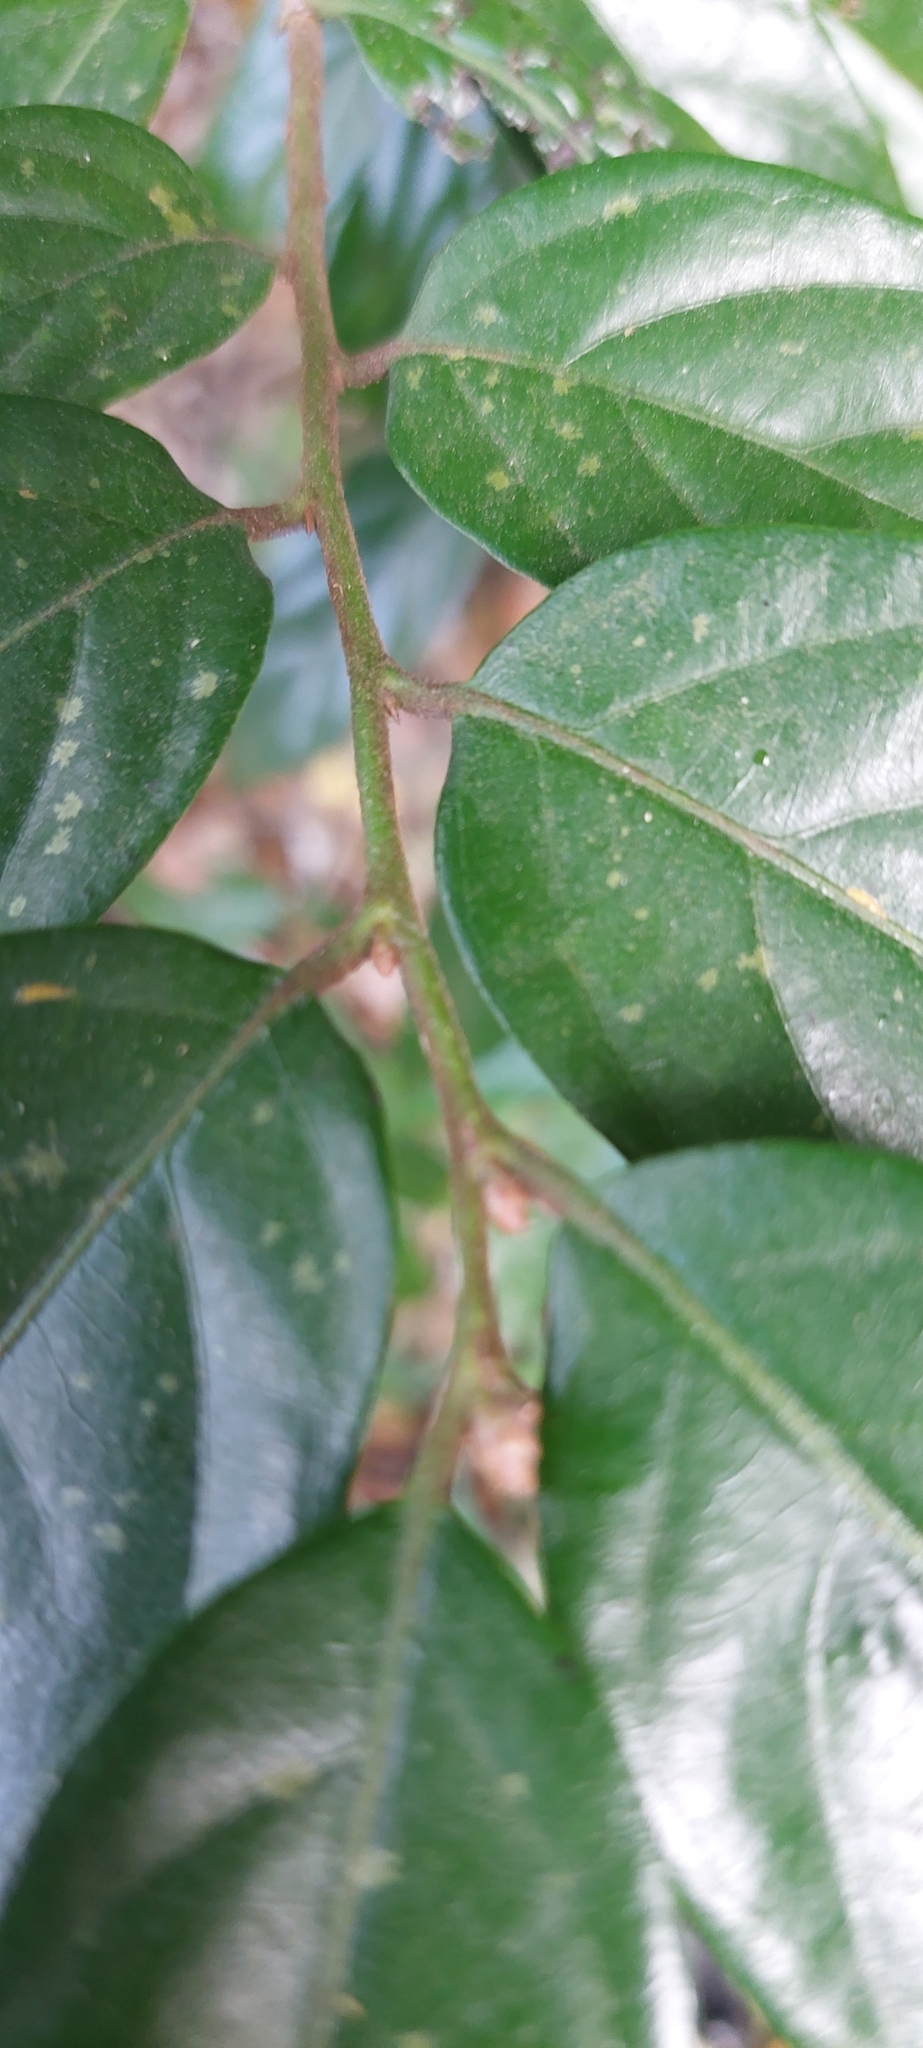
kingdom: Plantae
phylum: Tracheophyta
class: Magnoliopsida
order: Ericales
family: Ebenaceae
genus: Diospyros
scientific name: Diospyros eriantha
